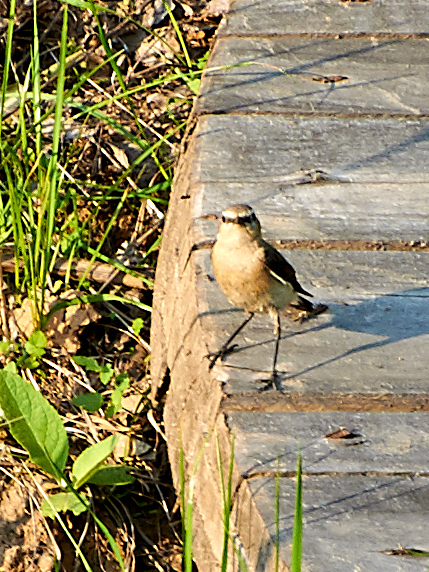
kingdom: Animalia
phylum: Chordata
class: Aves
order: Passeriformes
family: Muscicapidae
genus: Oenanthe
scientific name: Oenanthe oenanthe
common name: Northern wheatear
